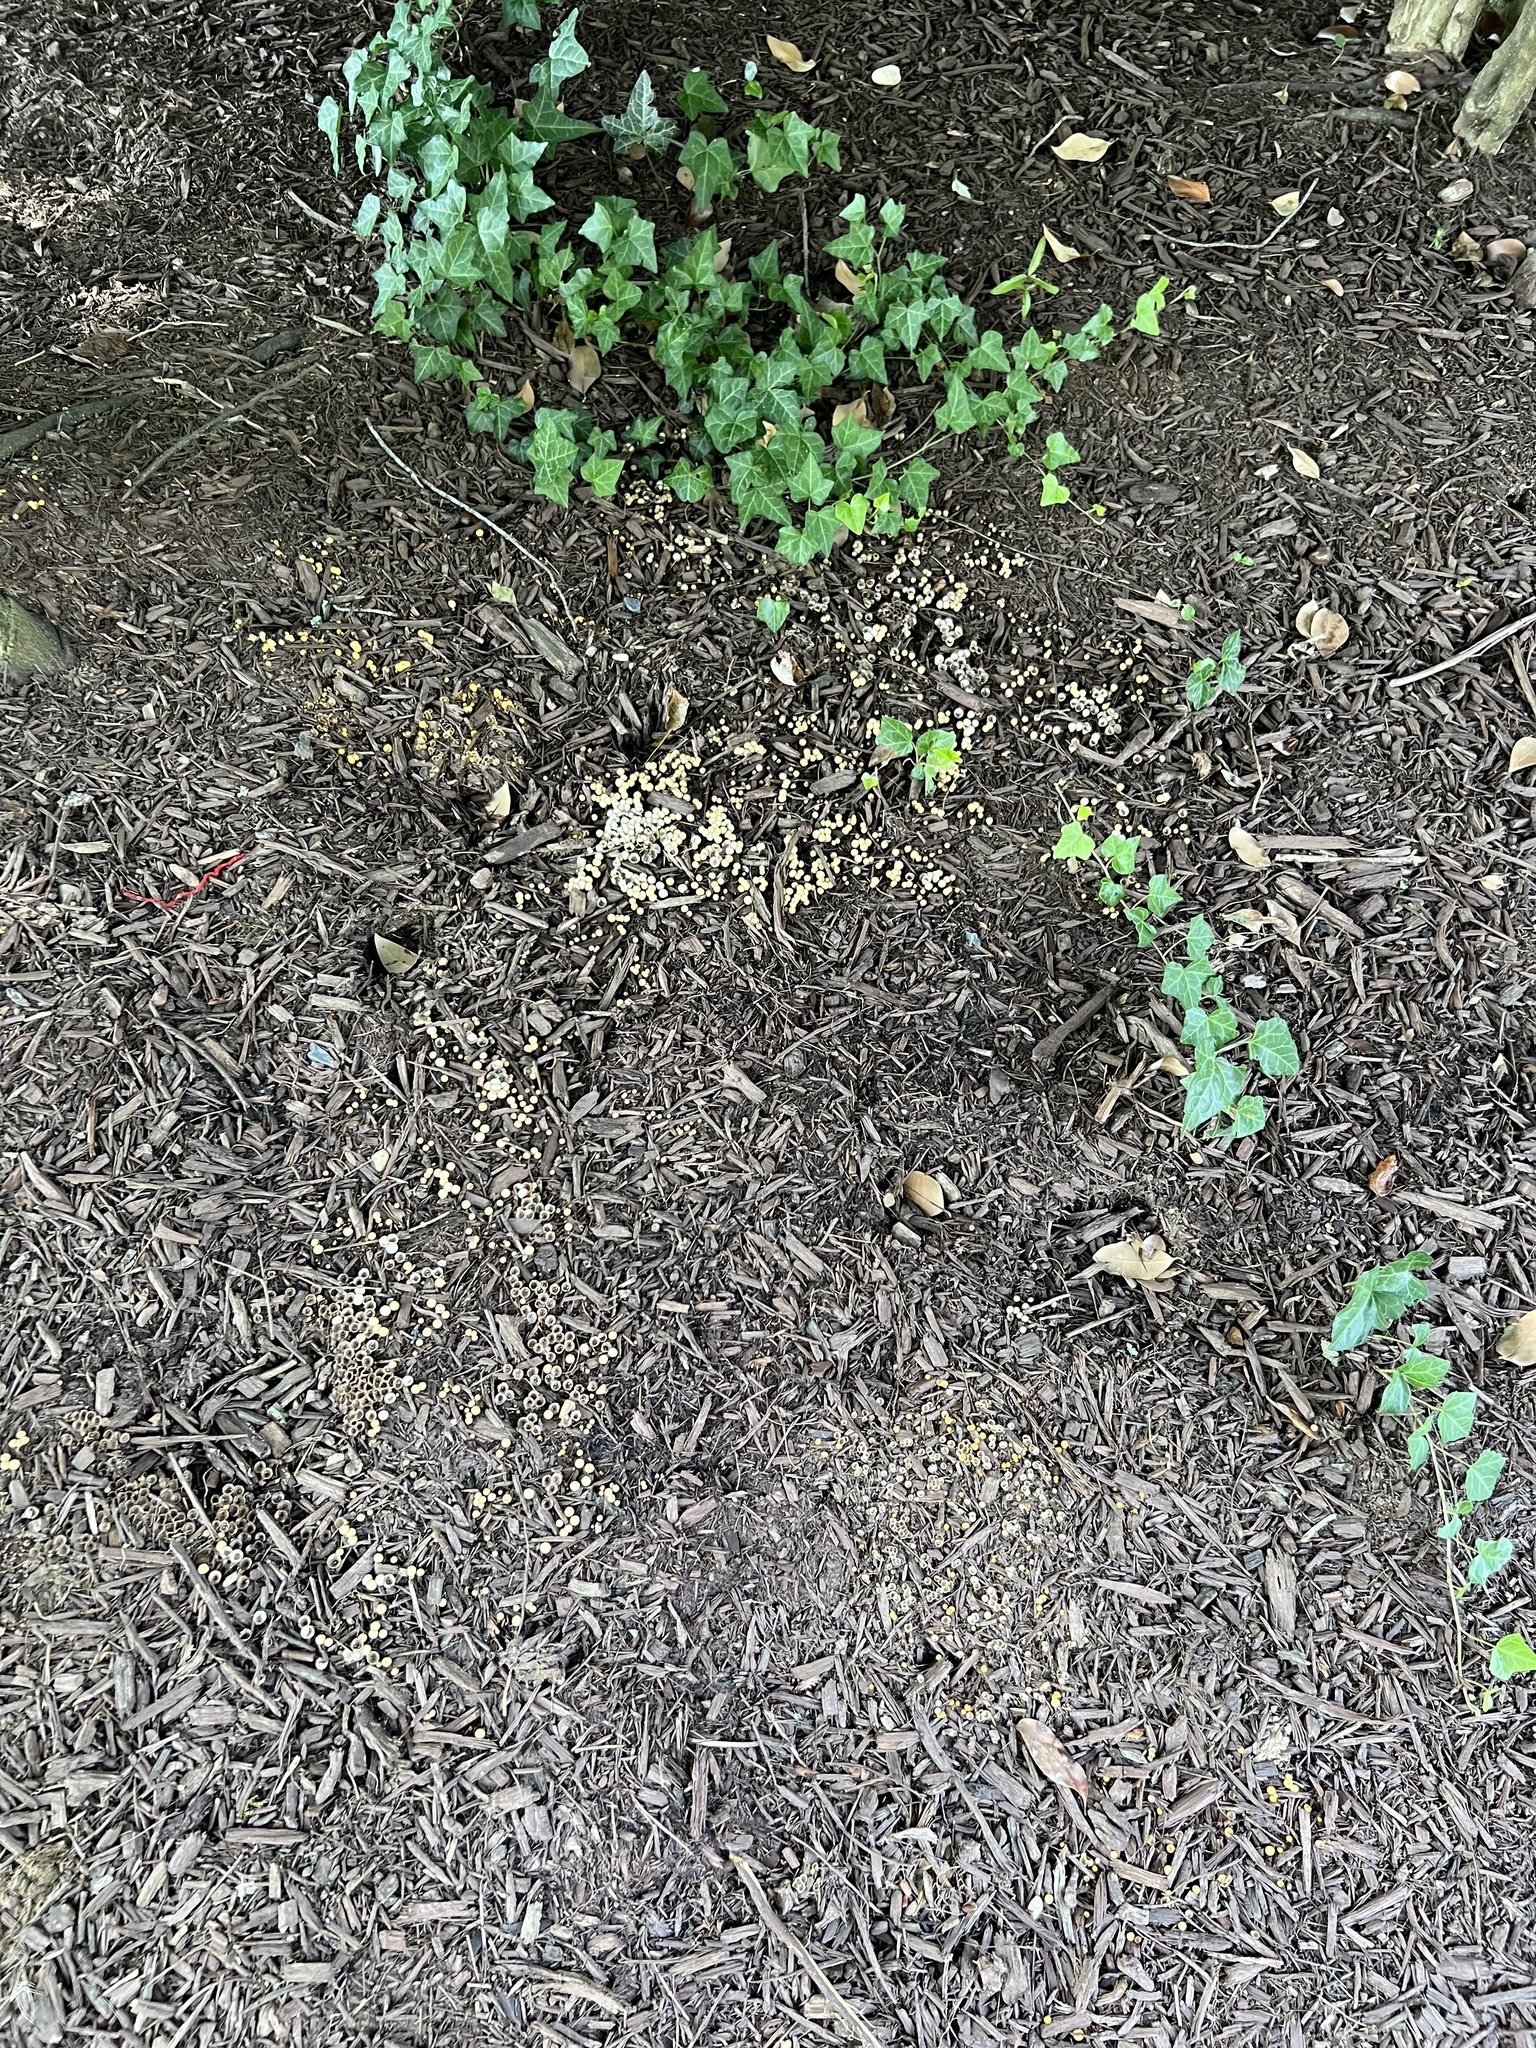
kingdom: Fungi
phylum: Basidiomycota
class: Agaricomycetes
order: Agaricales
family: Agaricaceae
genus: Cyathus
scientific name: Cyathus striatus
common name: Fluted bird's nest
